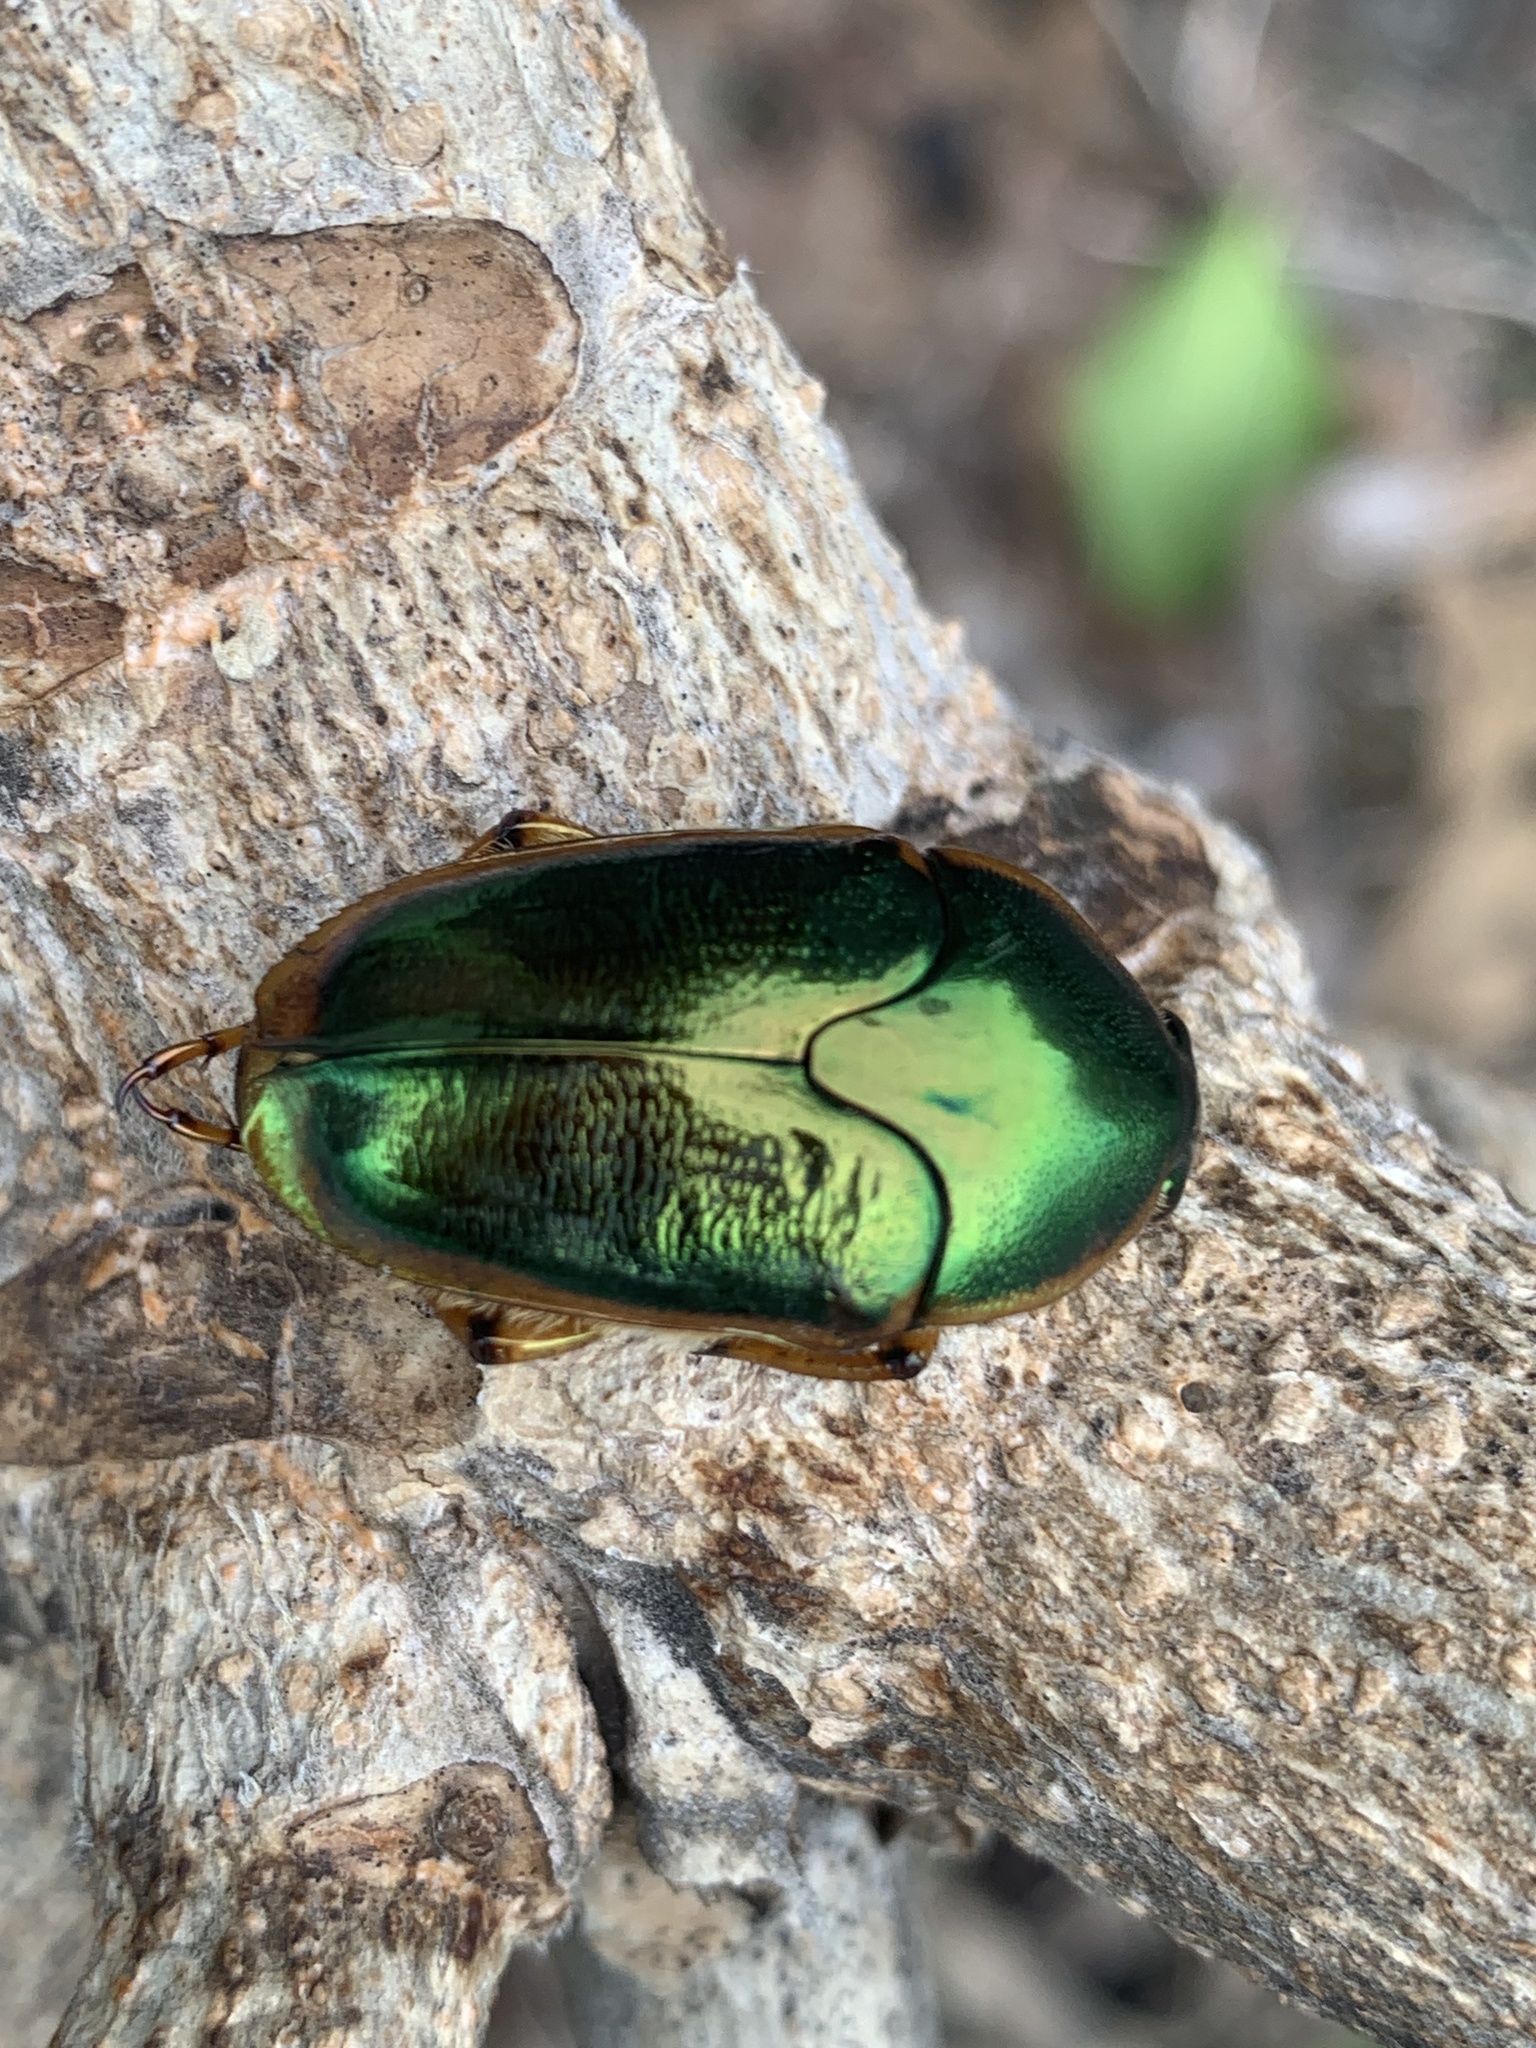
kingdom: Animalia
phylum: Arthropoda
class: Insecta
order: Coleoptera
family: Scarabaeidae
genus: Mycterophallus
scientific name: Mycterophallus duboulayi
